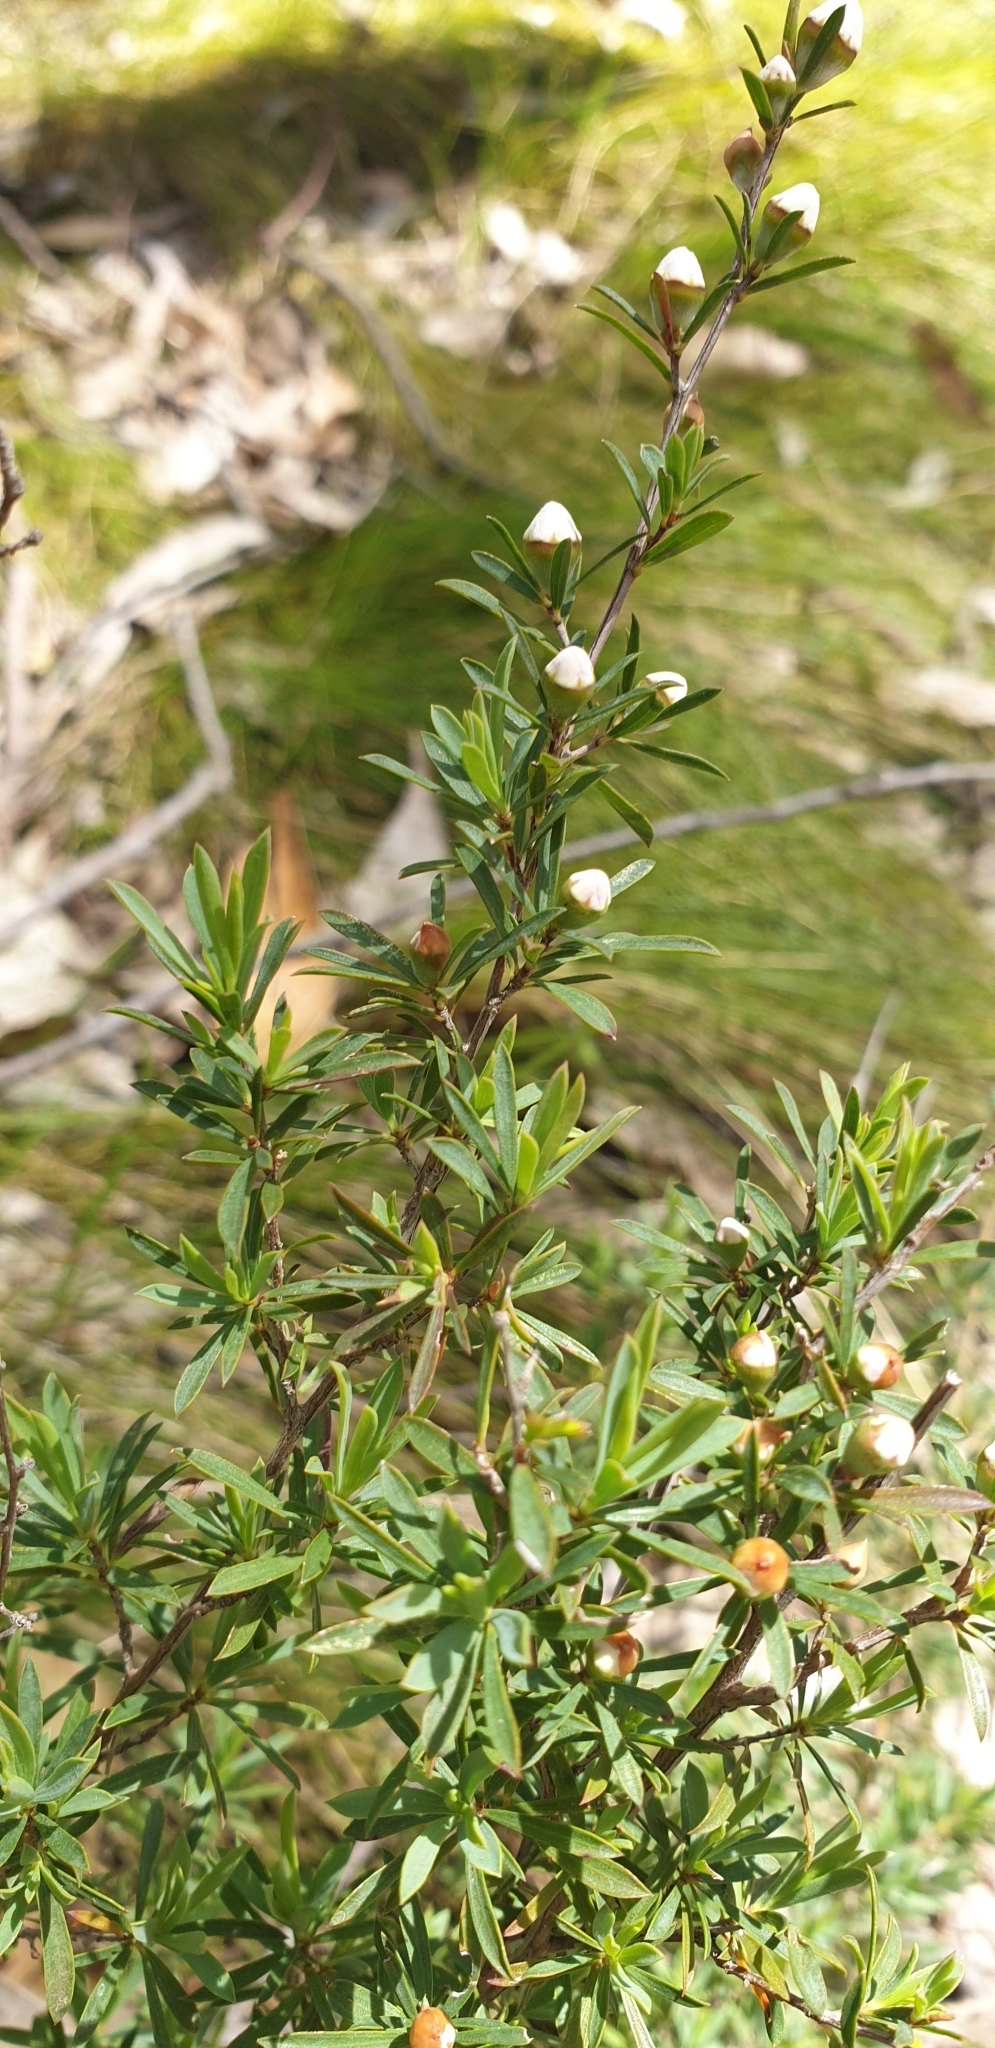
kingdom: Plantae
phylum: Tracheophyta
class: Magnoliopsida
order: Myrtales
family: Myrtaceae
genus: Leptospermum
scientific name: Leptospermum continentale
